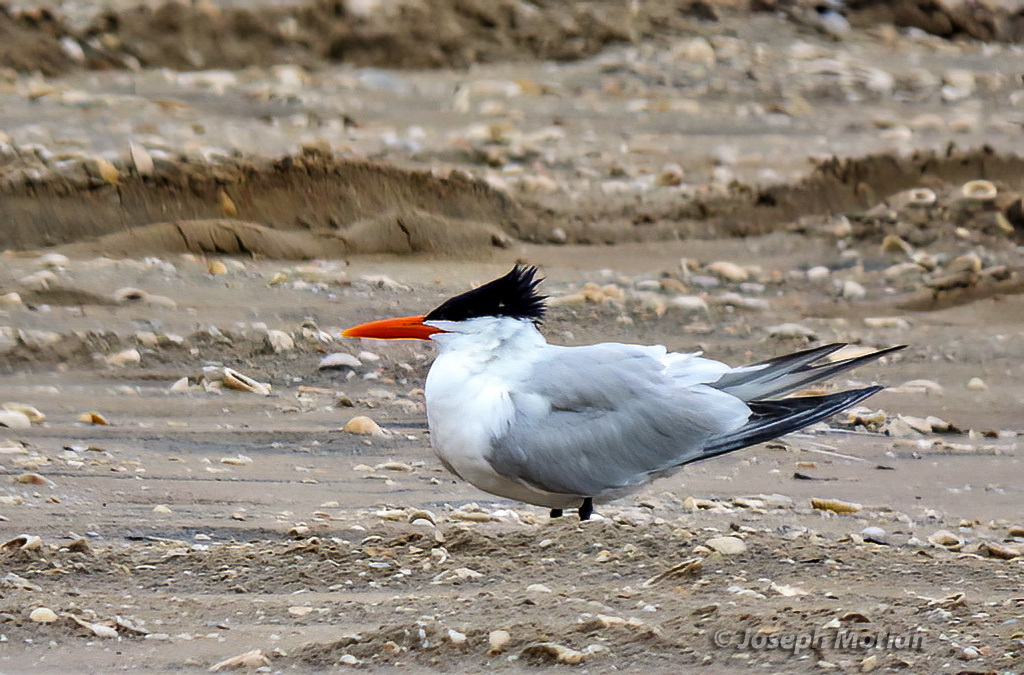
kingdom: Animalia
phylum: Chordata
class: Aves
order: Charadriiformes
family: Laridae
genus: Thalasseus
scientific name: Thalasseus maximus
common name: Royal tern
